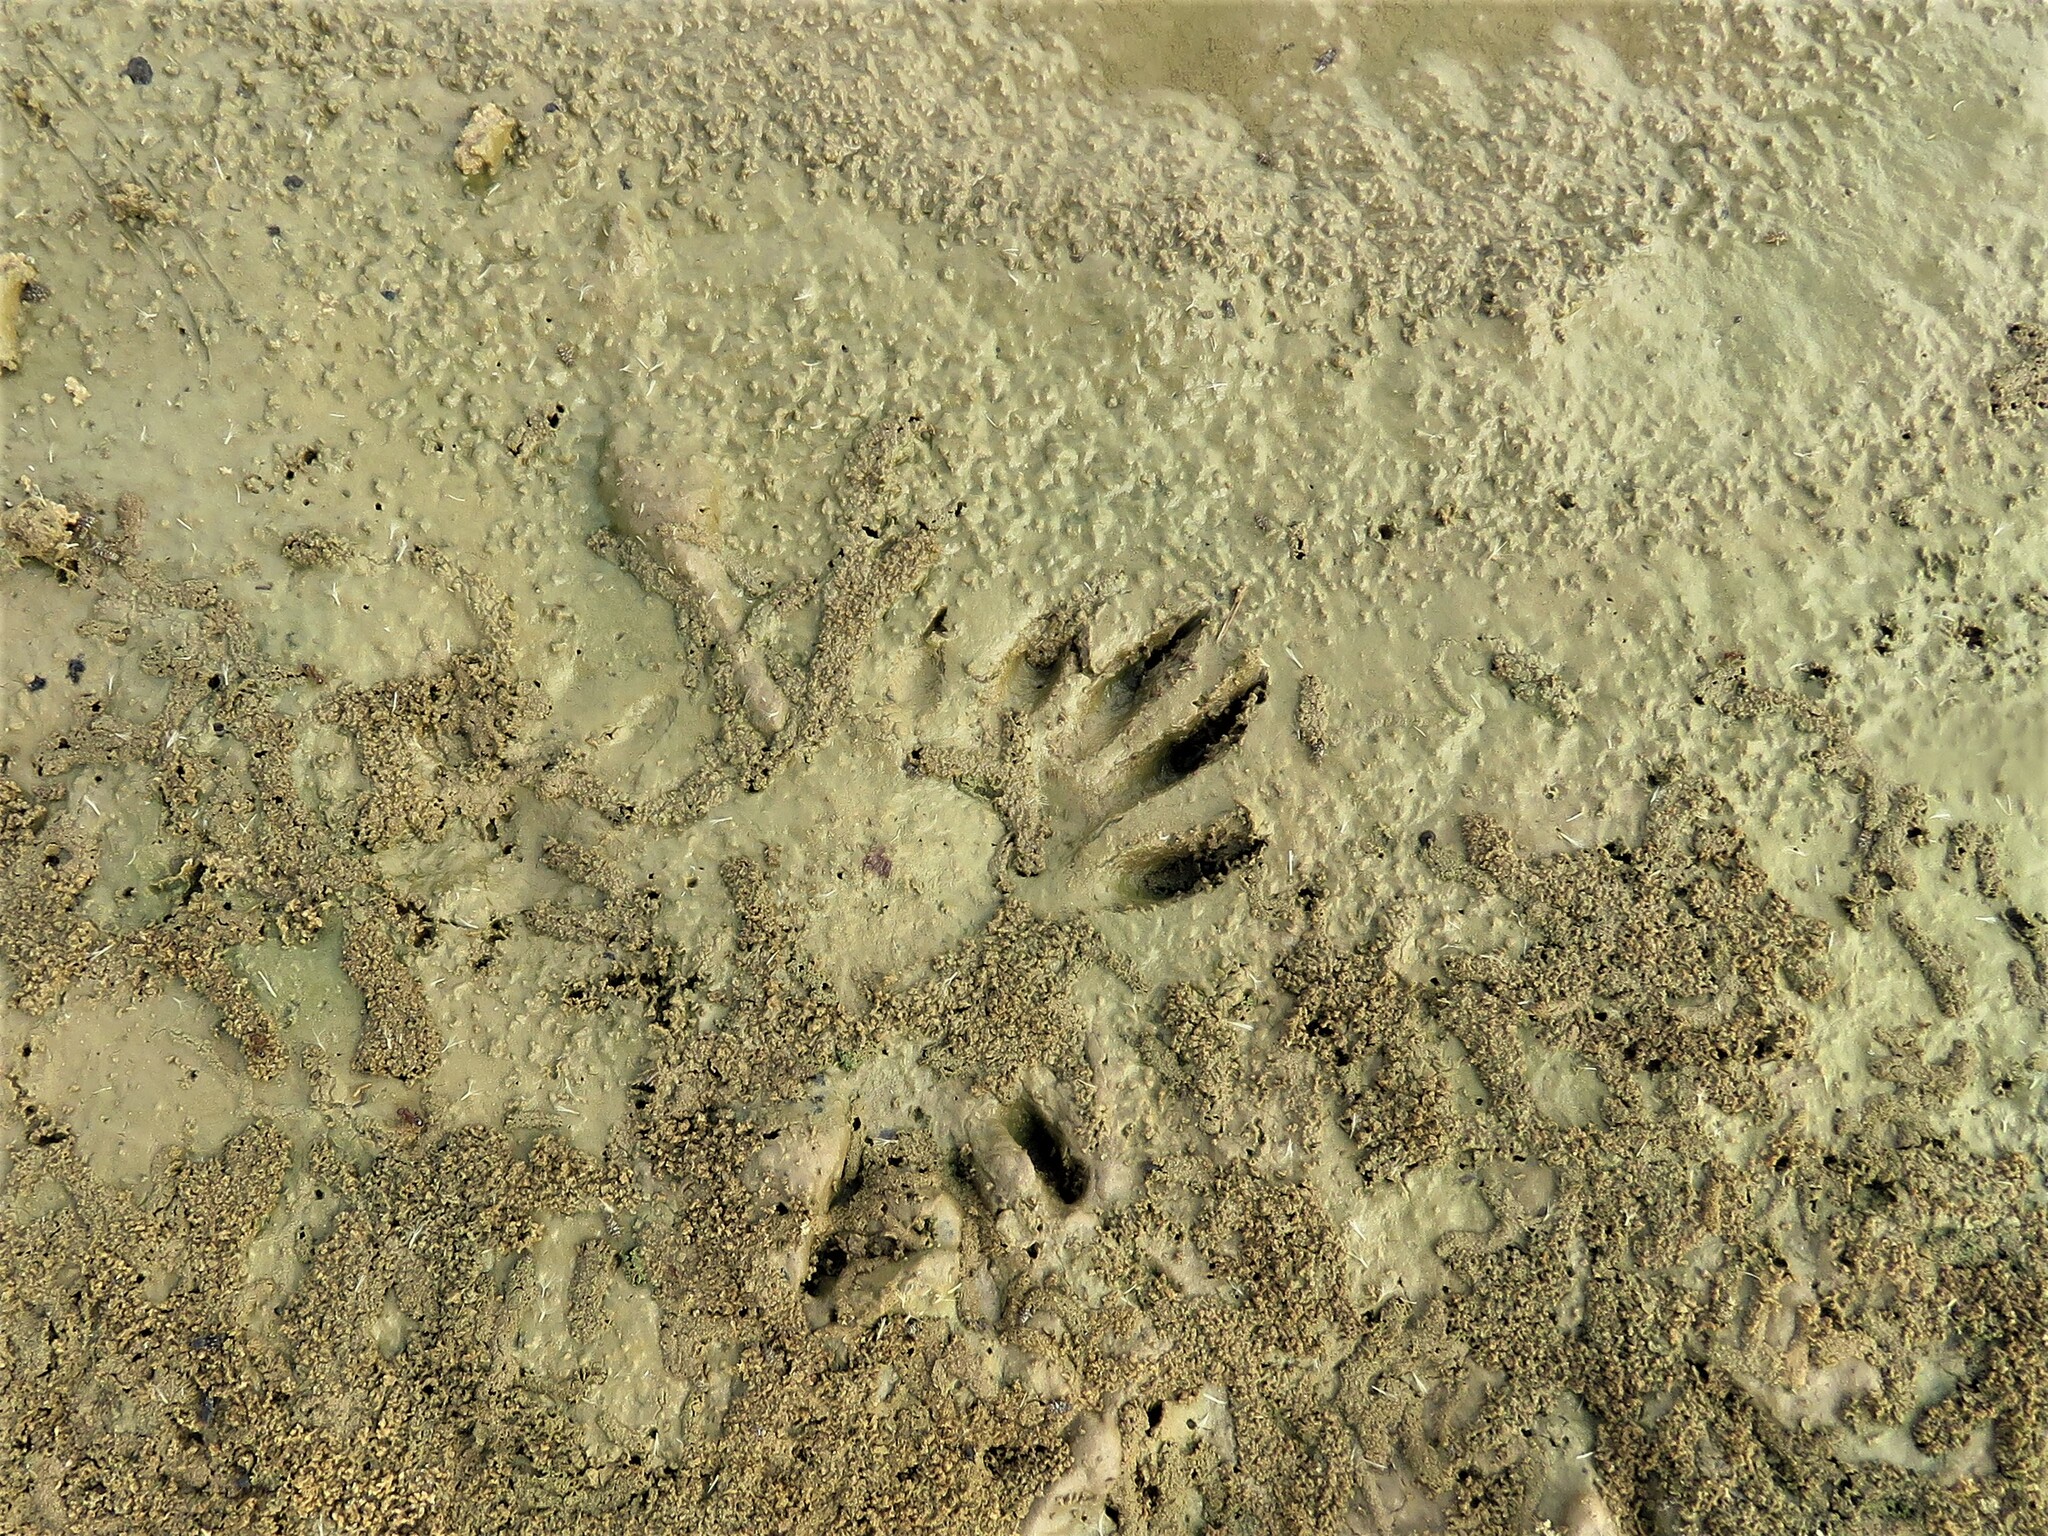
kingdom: Animalia
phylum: Chordata
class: Mammalia
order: Carnivora
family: Procyonidae
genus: Procyon
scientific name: Procyon lotor
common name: Raccoon
